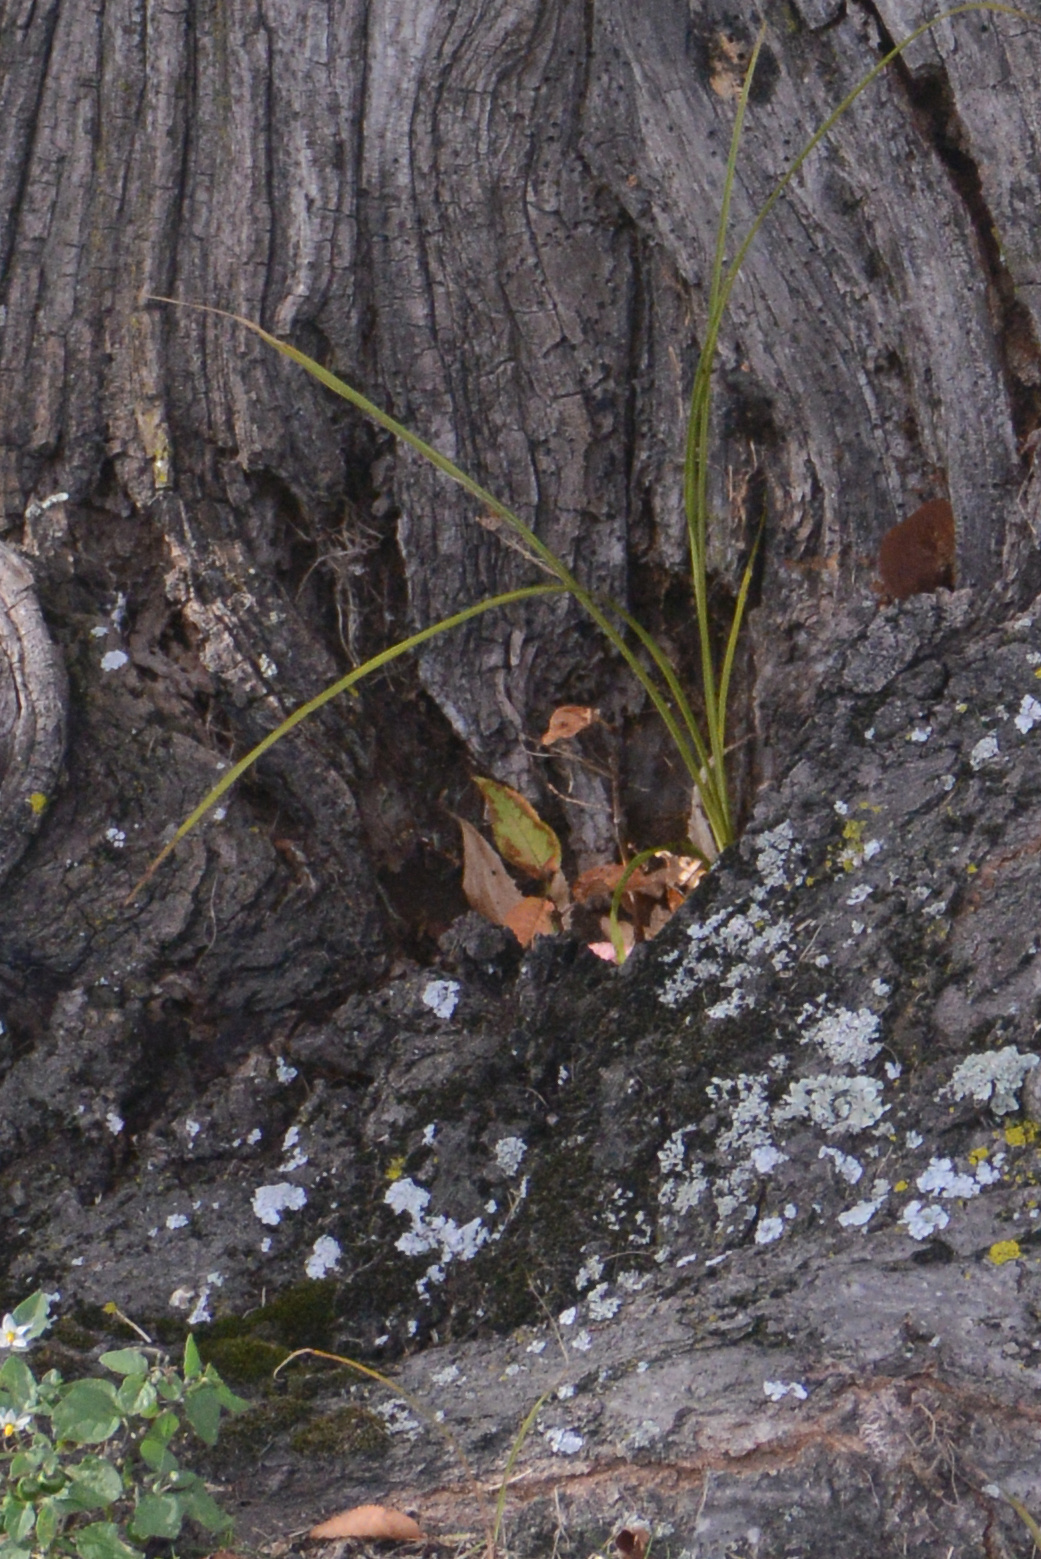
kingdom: Plantae
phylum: Tracheophyta
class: Liliopsida
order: Asparagales
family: Asparagaceae
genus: Cordyline
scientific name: Cordyline australis
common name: Cabbage-palm
